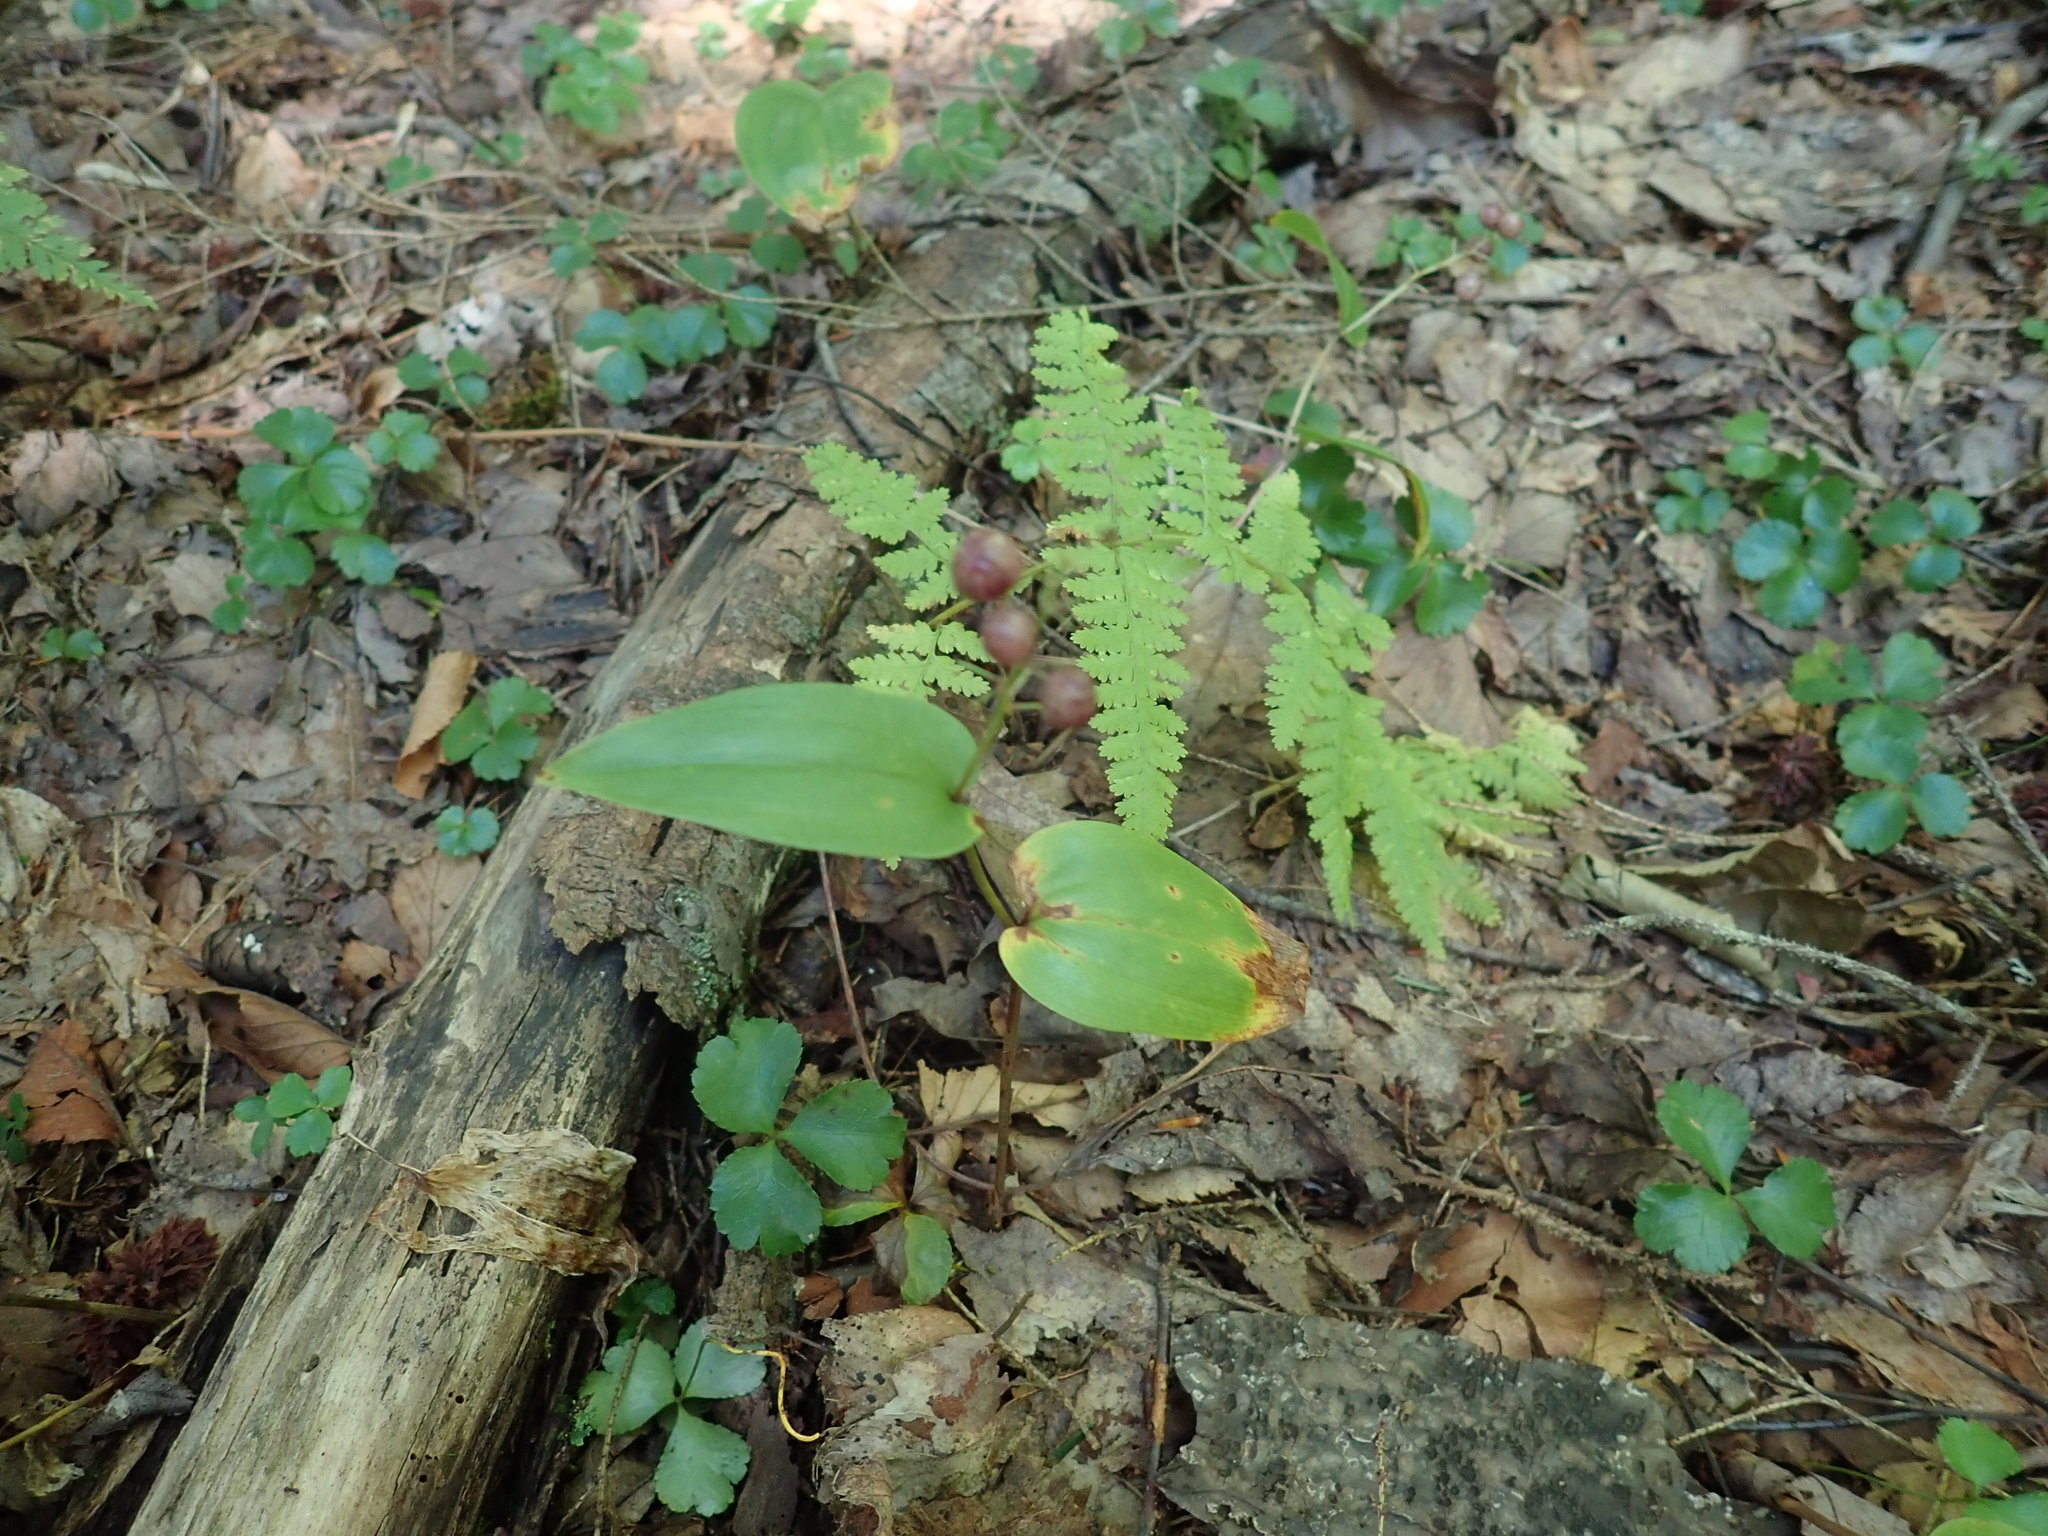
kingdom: Plantae
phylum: Tracheophyta
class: Liliopsida
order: Asparagales
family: Asparagaceae
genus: Maianthemum
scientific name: Maianthemum canadense
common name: False lily-of-the-valley
